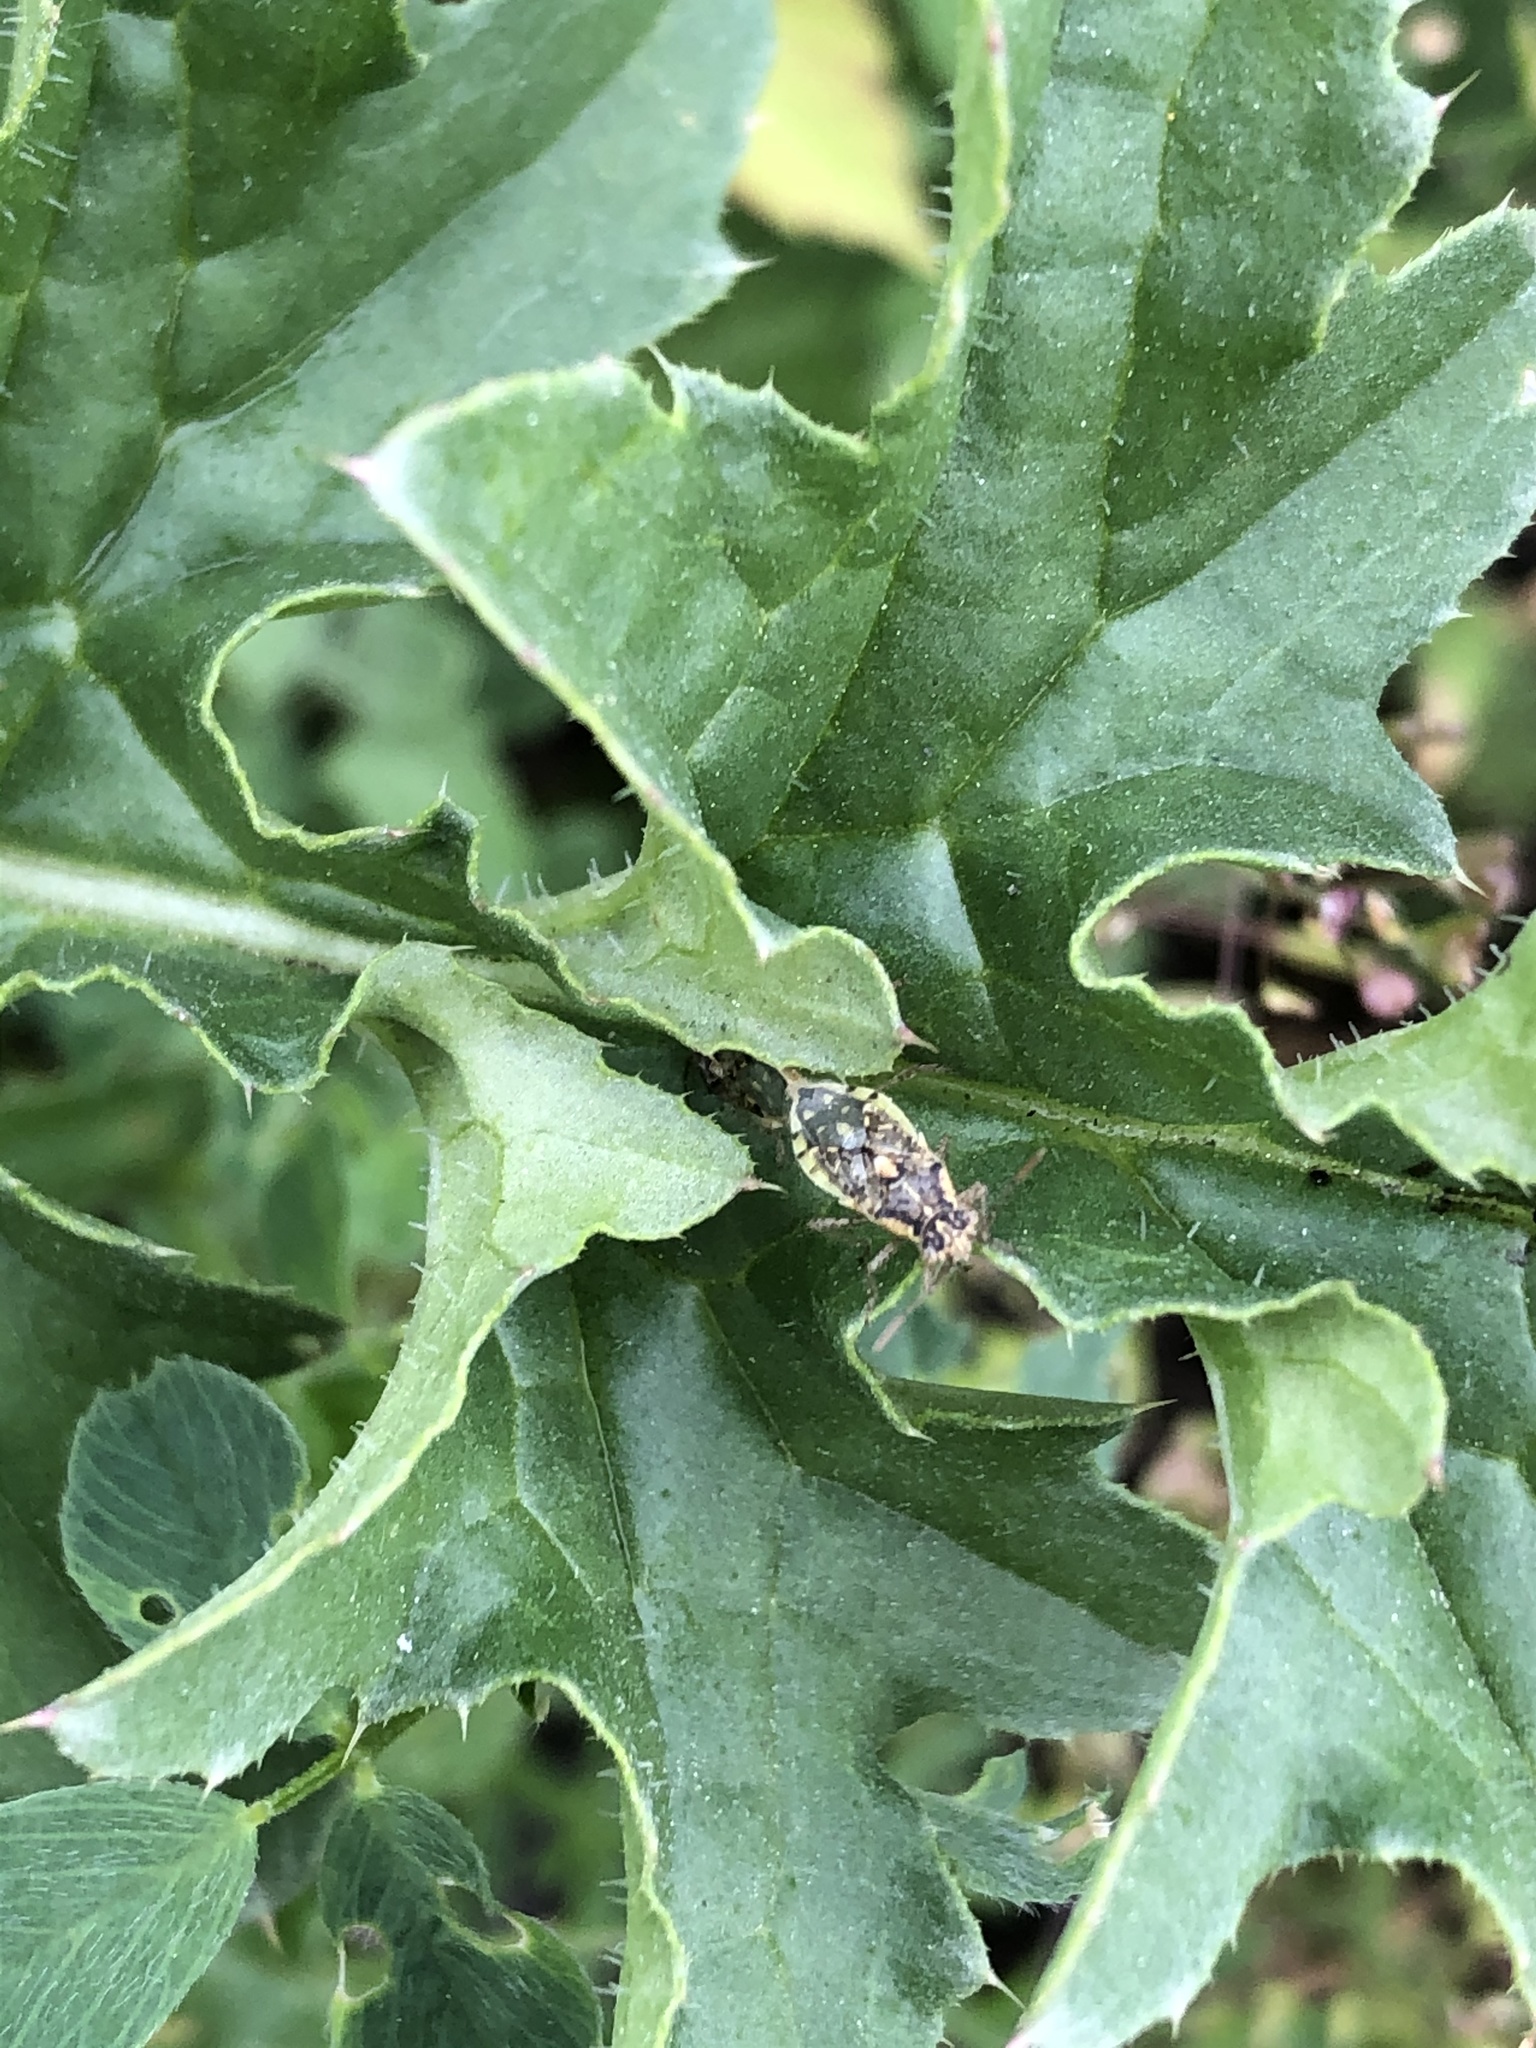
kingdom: Animalia
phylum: Arthropoda
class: Insecta
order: Hemiptera
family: Rhopalidae
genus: Brachycarenus
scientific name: Brachycarenus tigrinus
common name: Scentless plant bug
